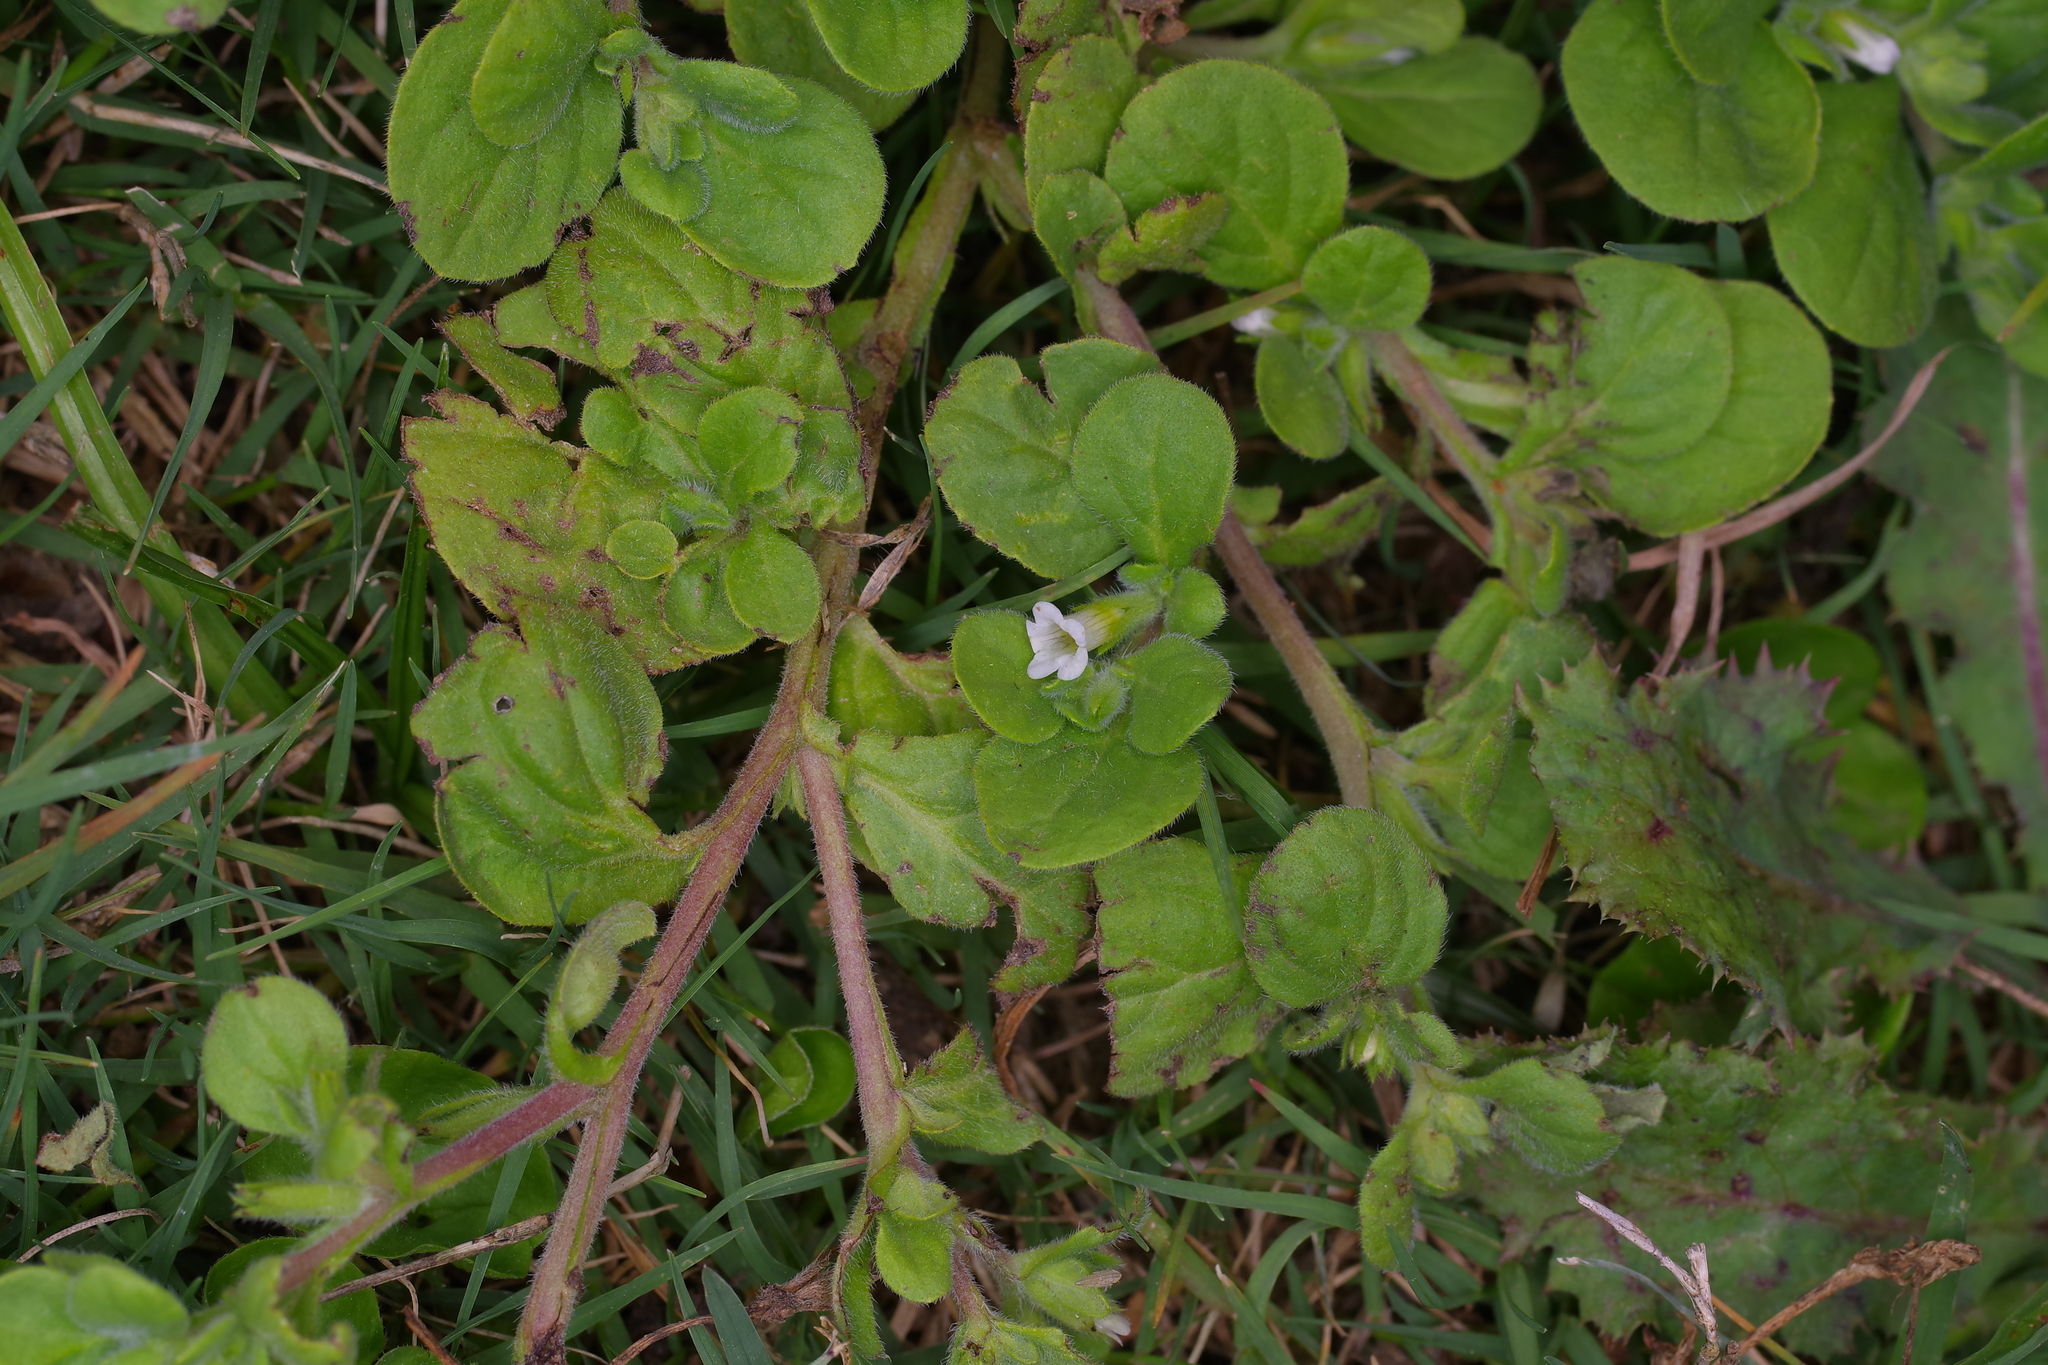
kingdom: Plantae
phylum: Tracheophyta
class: Magnoliopsida
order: Boraginales
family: Namaceae
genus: Nama
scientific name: Nama jamaicensis
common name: Jamaicanweed
